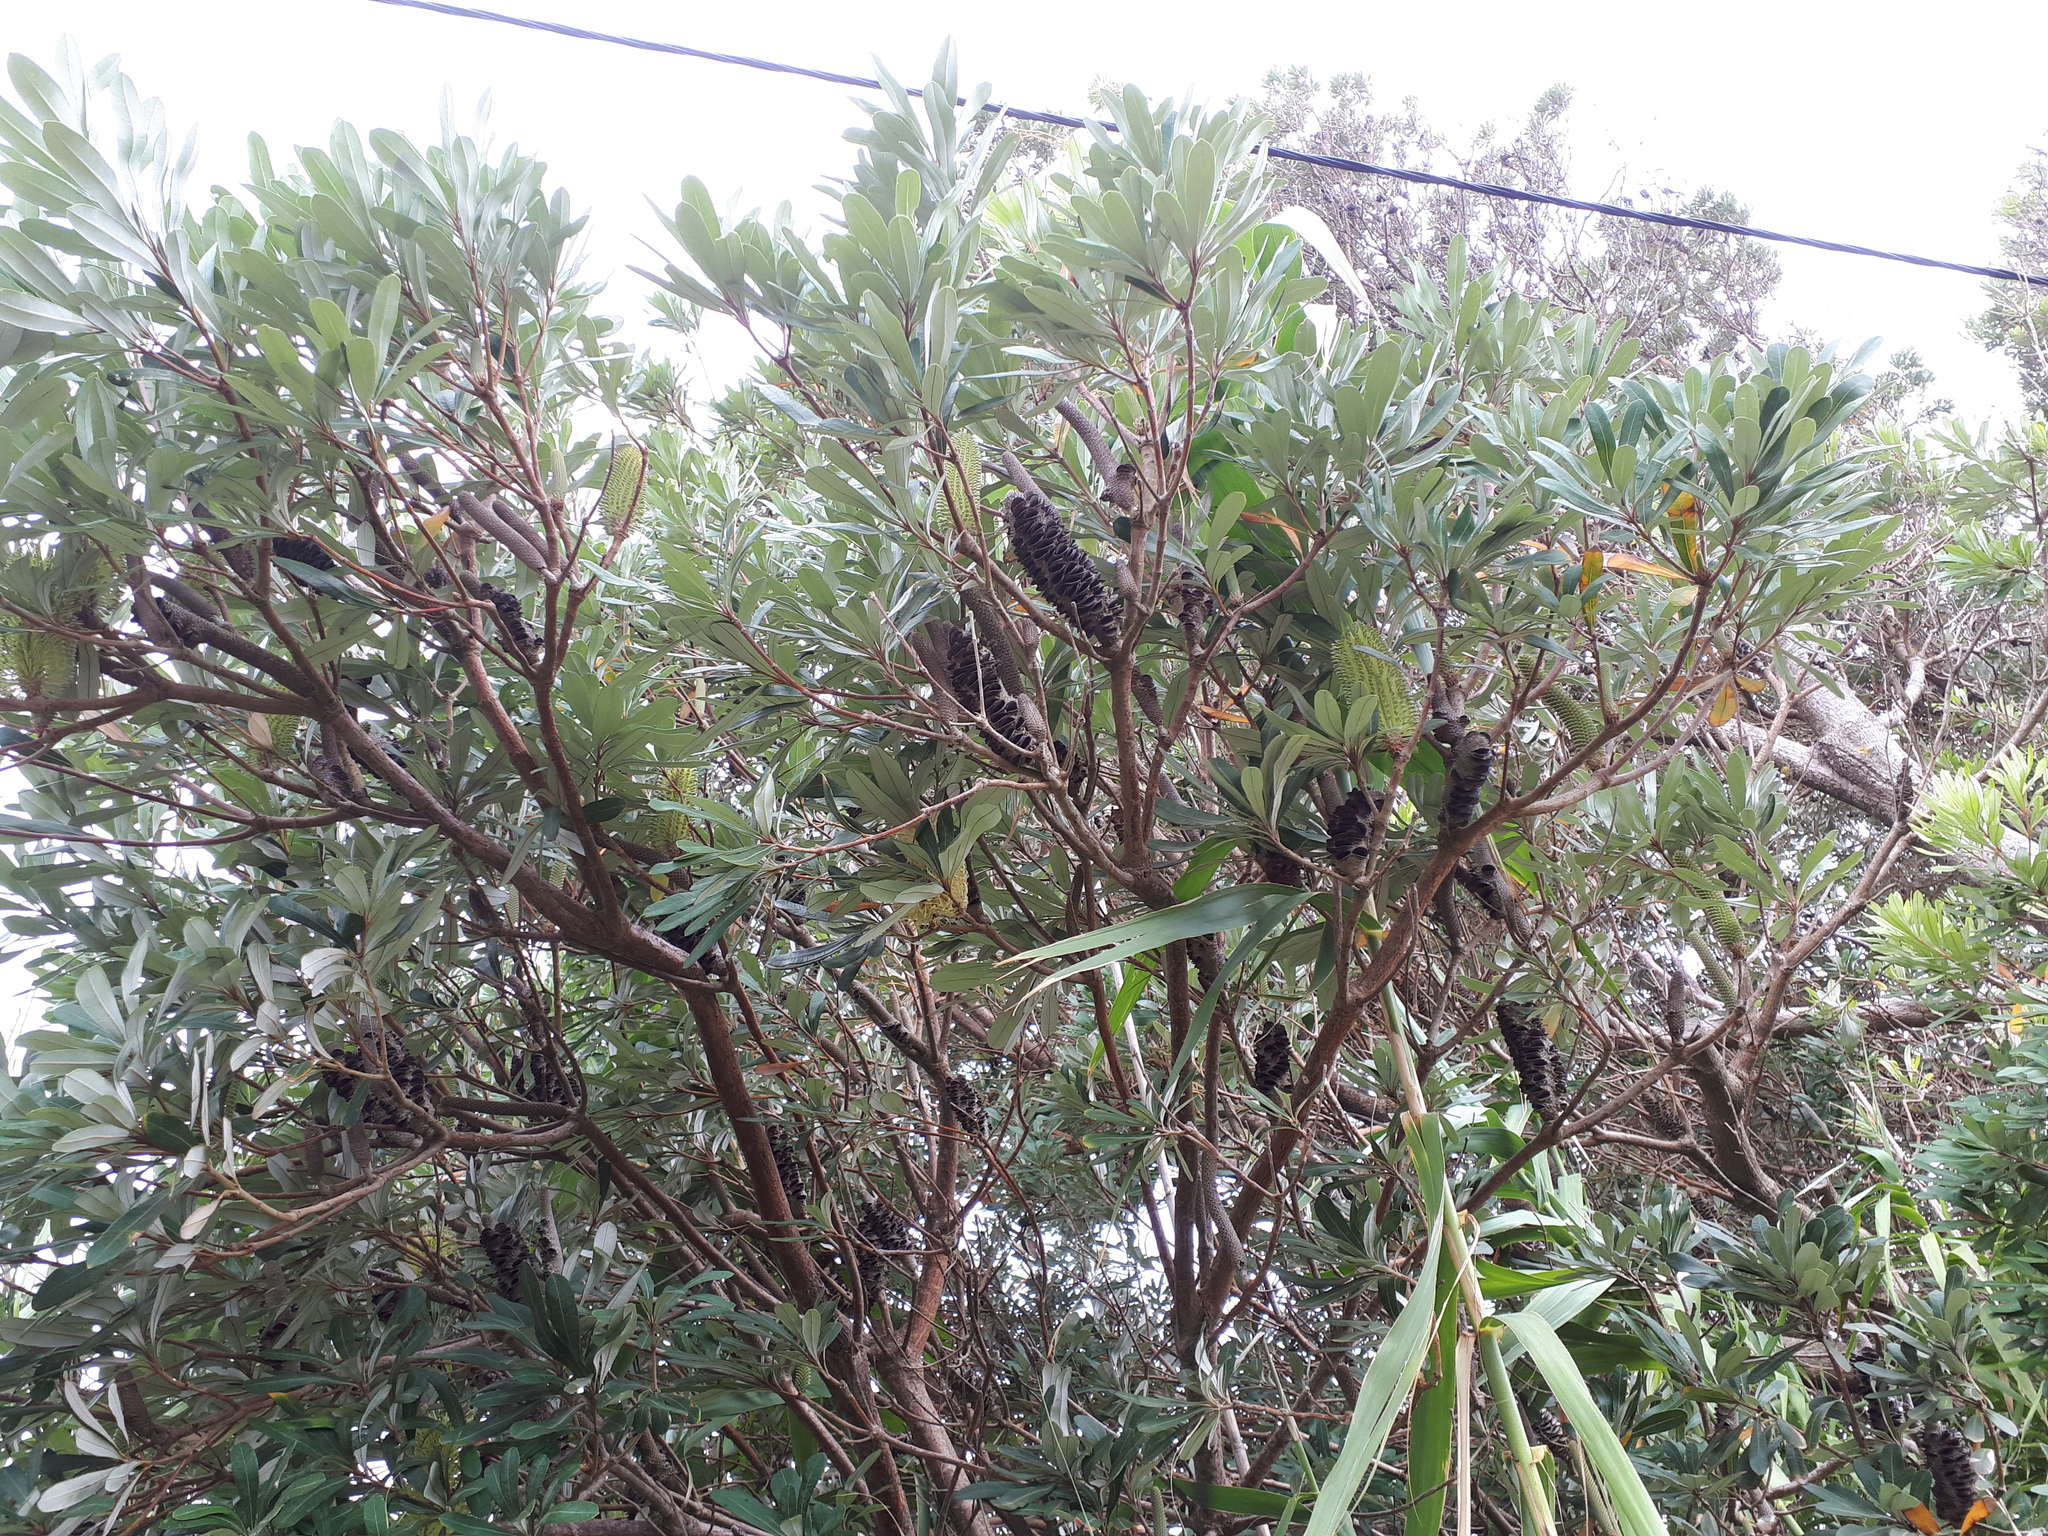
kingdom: Plantae
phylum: Tracheophyta
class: Magnoliopsida
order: Proteales
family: Proteaceae
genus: Banksia
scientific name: Banksia integrifolia
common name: White-honeysuckle
